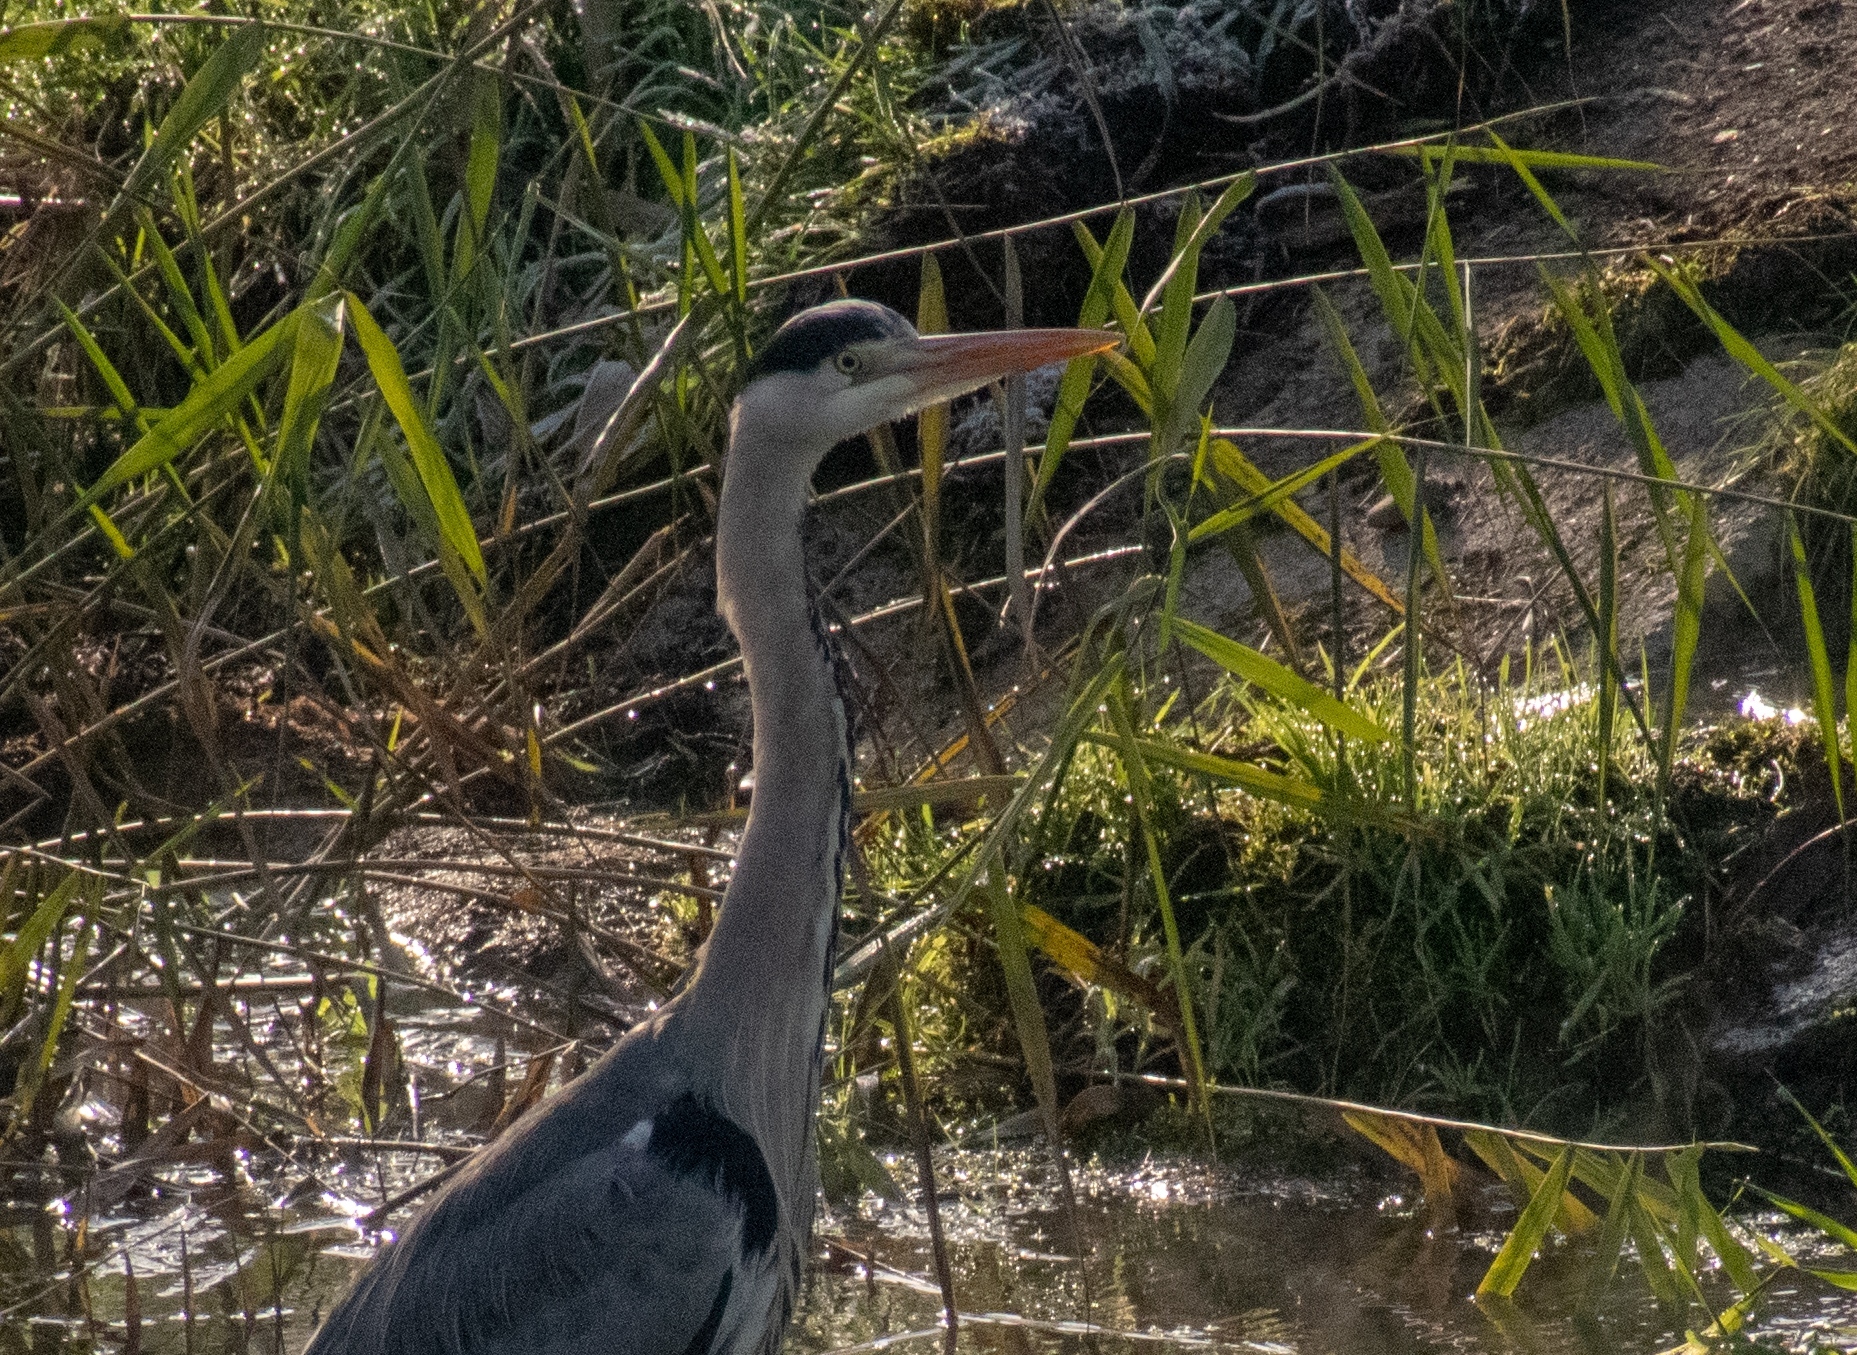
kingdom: Animalia
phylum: Chordata
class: Aves
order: Pelecaniformes
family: Ardeidae
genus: Ardea
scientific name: Ardea cinerea
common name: Grey heron
